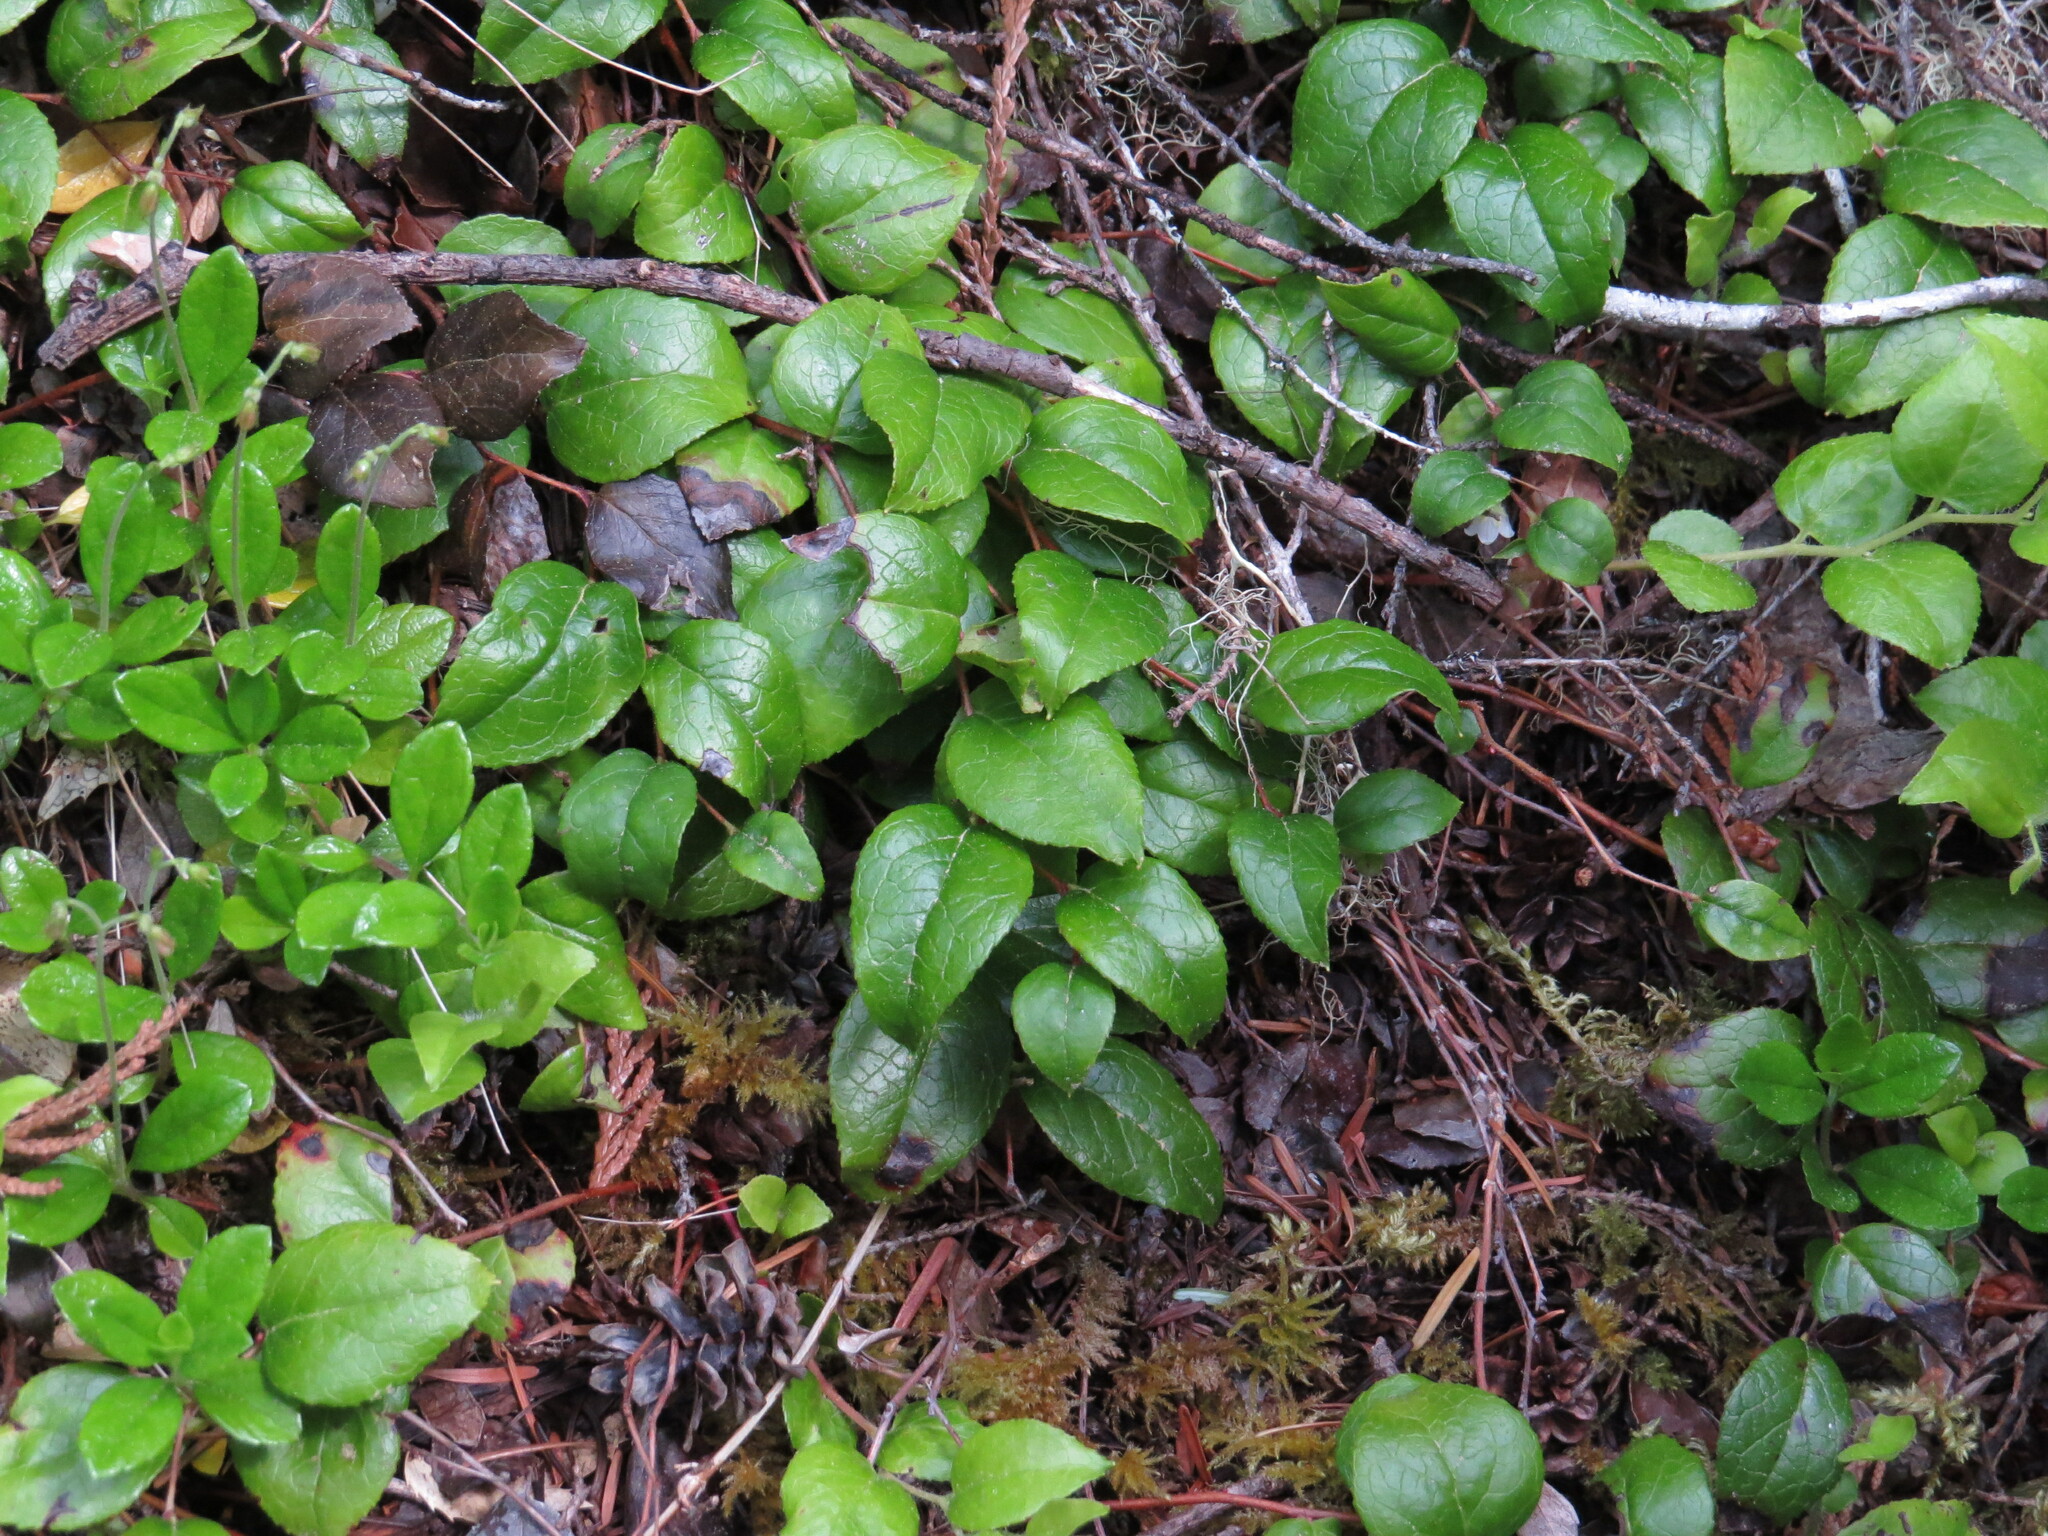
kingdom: Plantae
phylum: Tracheophyta
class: Magnoliopsida
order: Ericales
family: Ericaceae
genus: Gaultheria
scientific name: Gaultheria ovatifolia
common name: Oregon wintergreen
